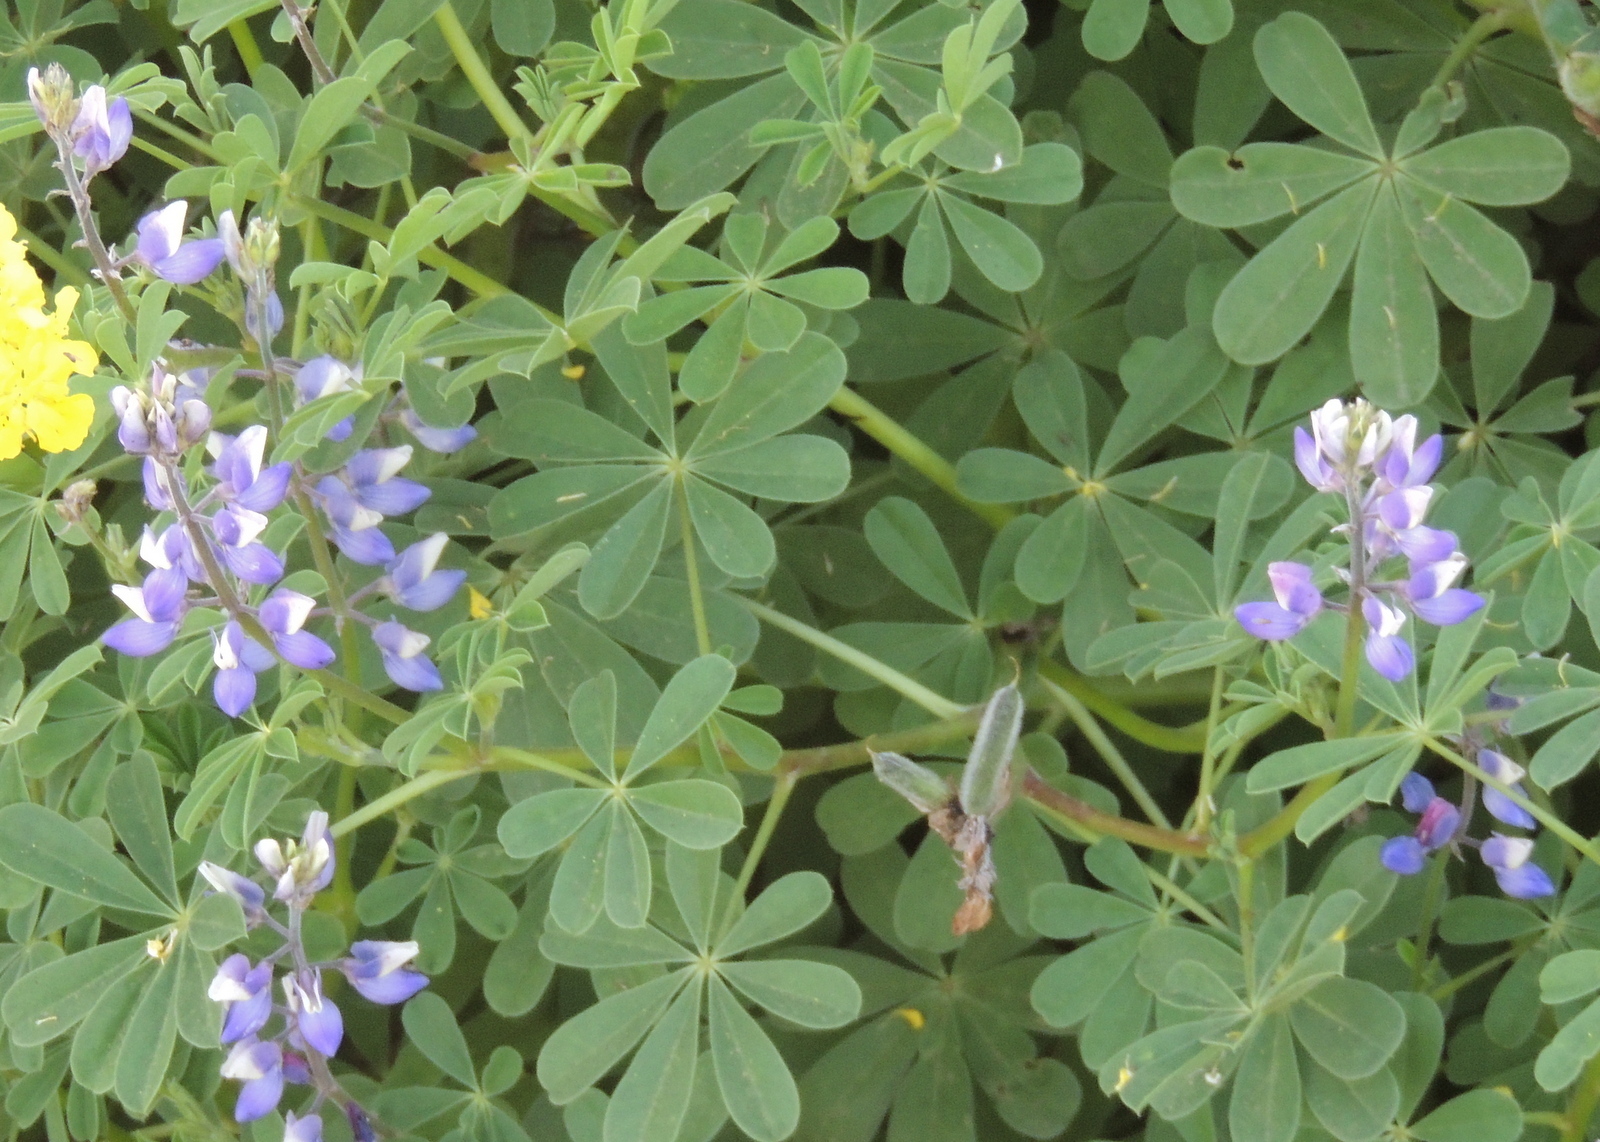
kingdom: Plantae
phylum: Tracheophyta
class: Magnoliopsida
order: Fabales
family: Fabaceae
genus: Lupinus
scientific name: Lupinus succulentus
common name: Arroyo lupine
